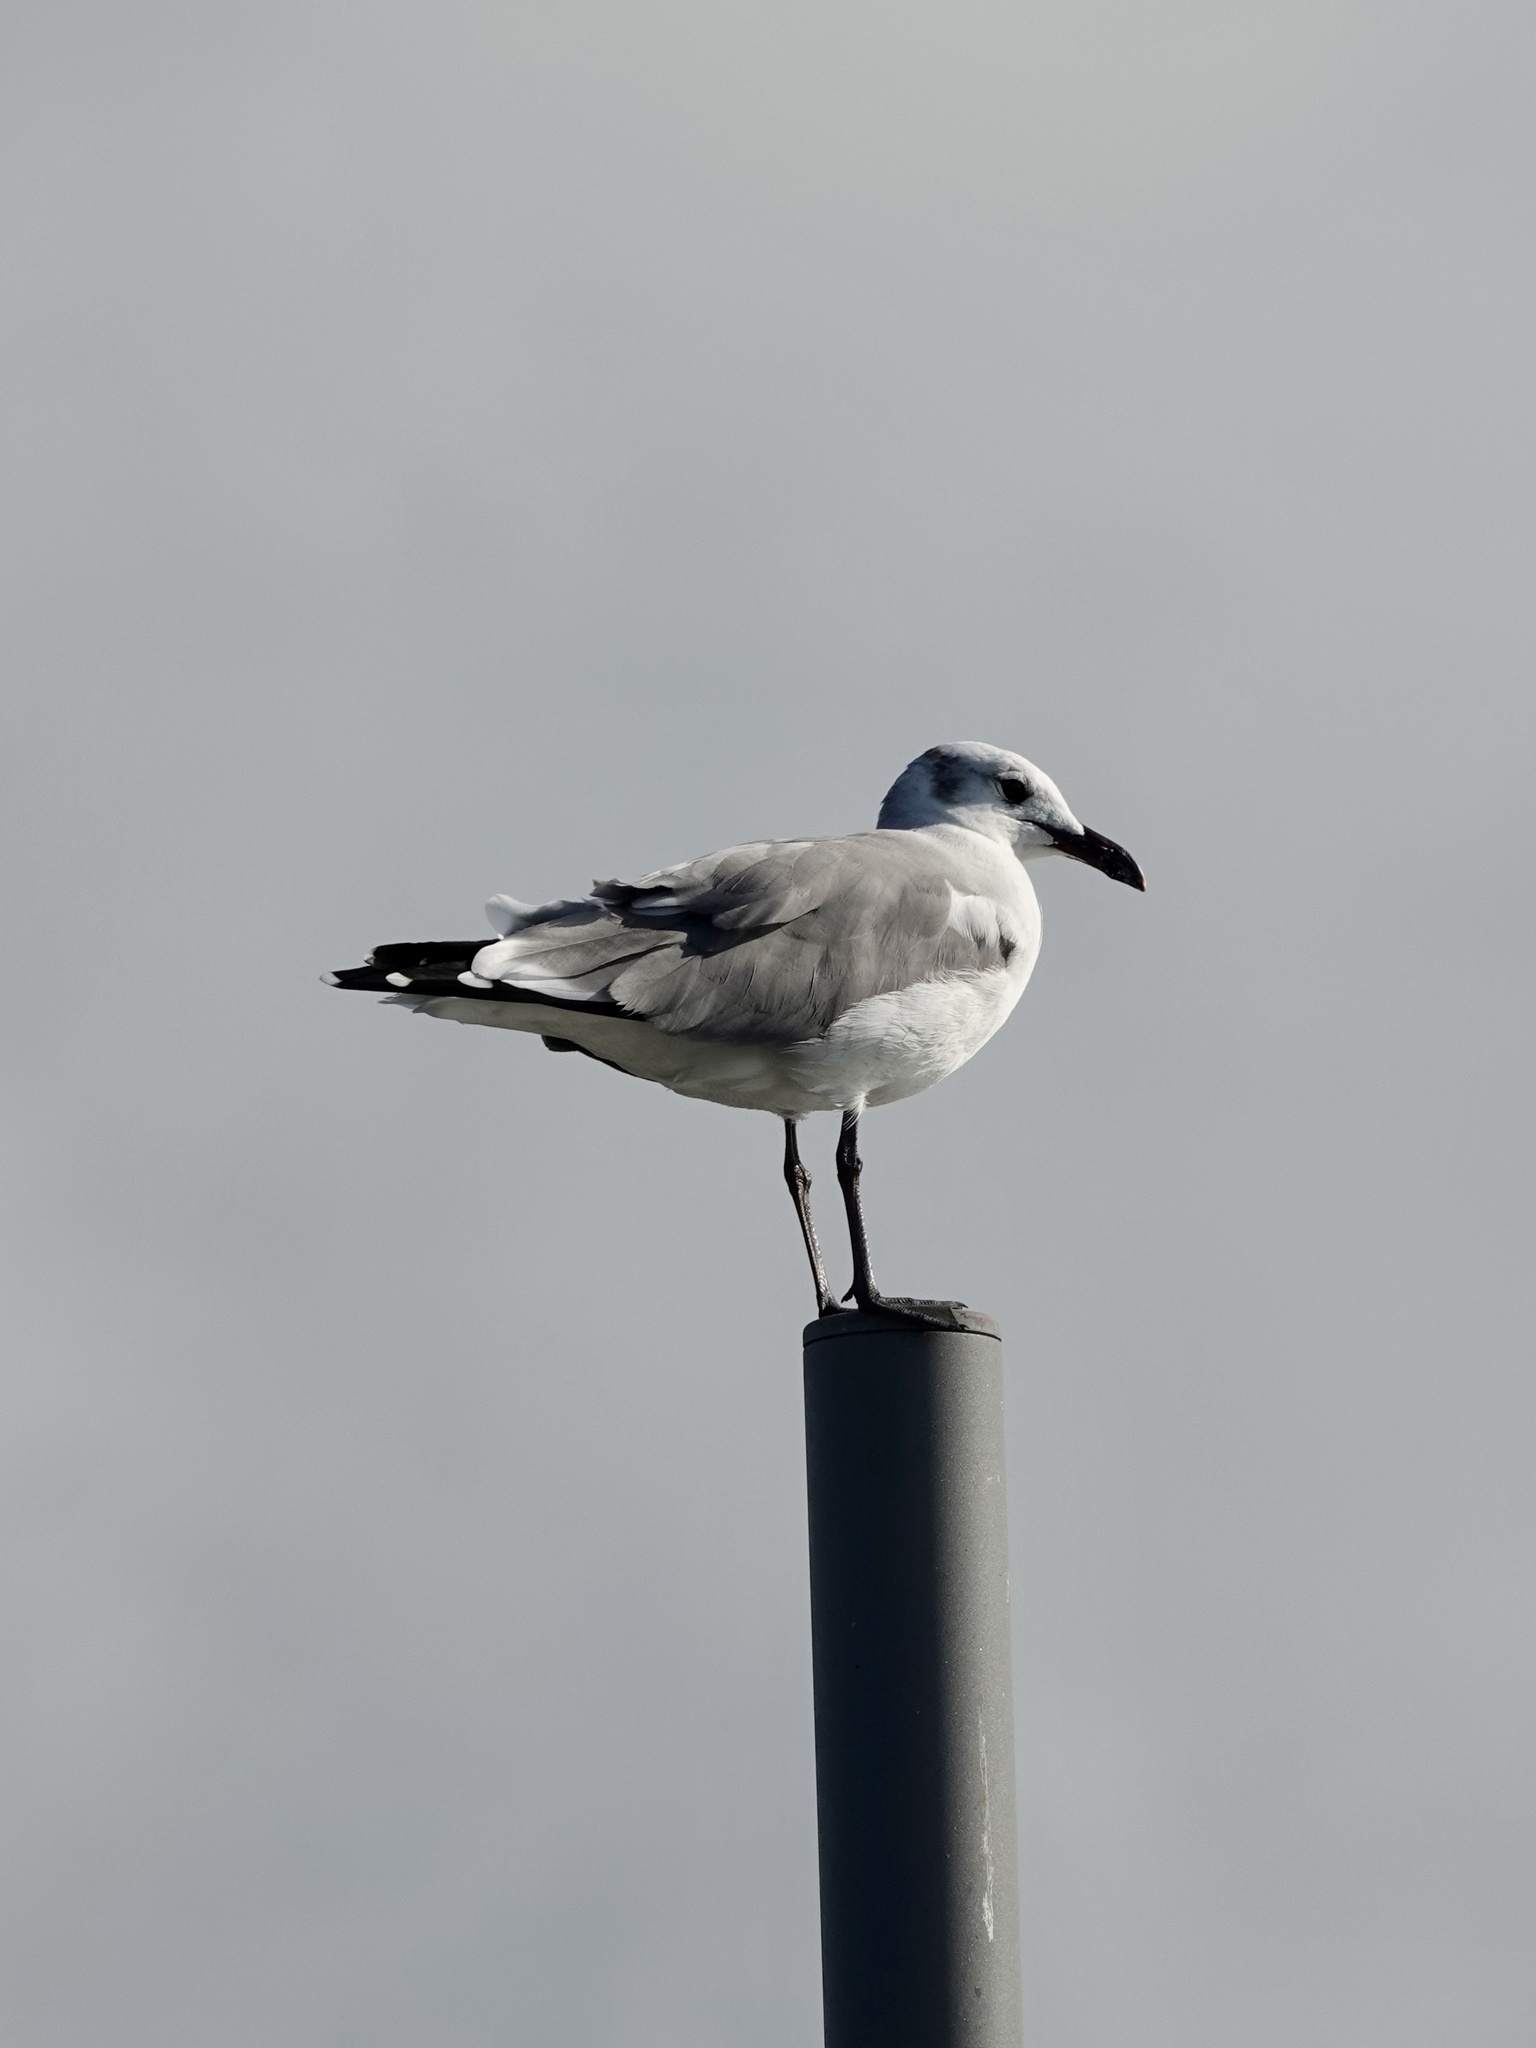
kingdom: Animalia
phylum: Chordata
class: Aves
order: Charadriiformes
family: Laridae
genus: Leucophaeus
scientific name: Leucophaeus atricilla
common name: Laughing gull
